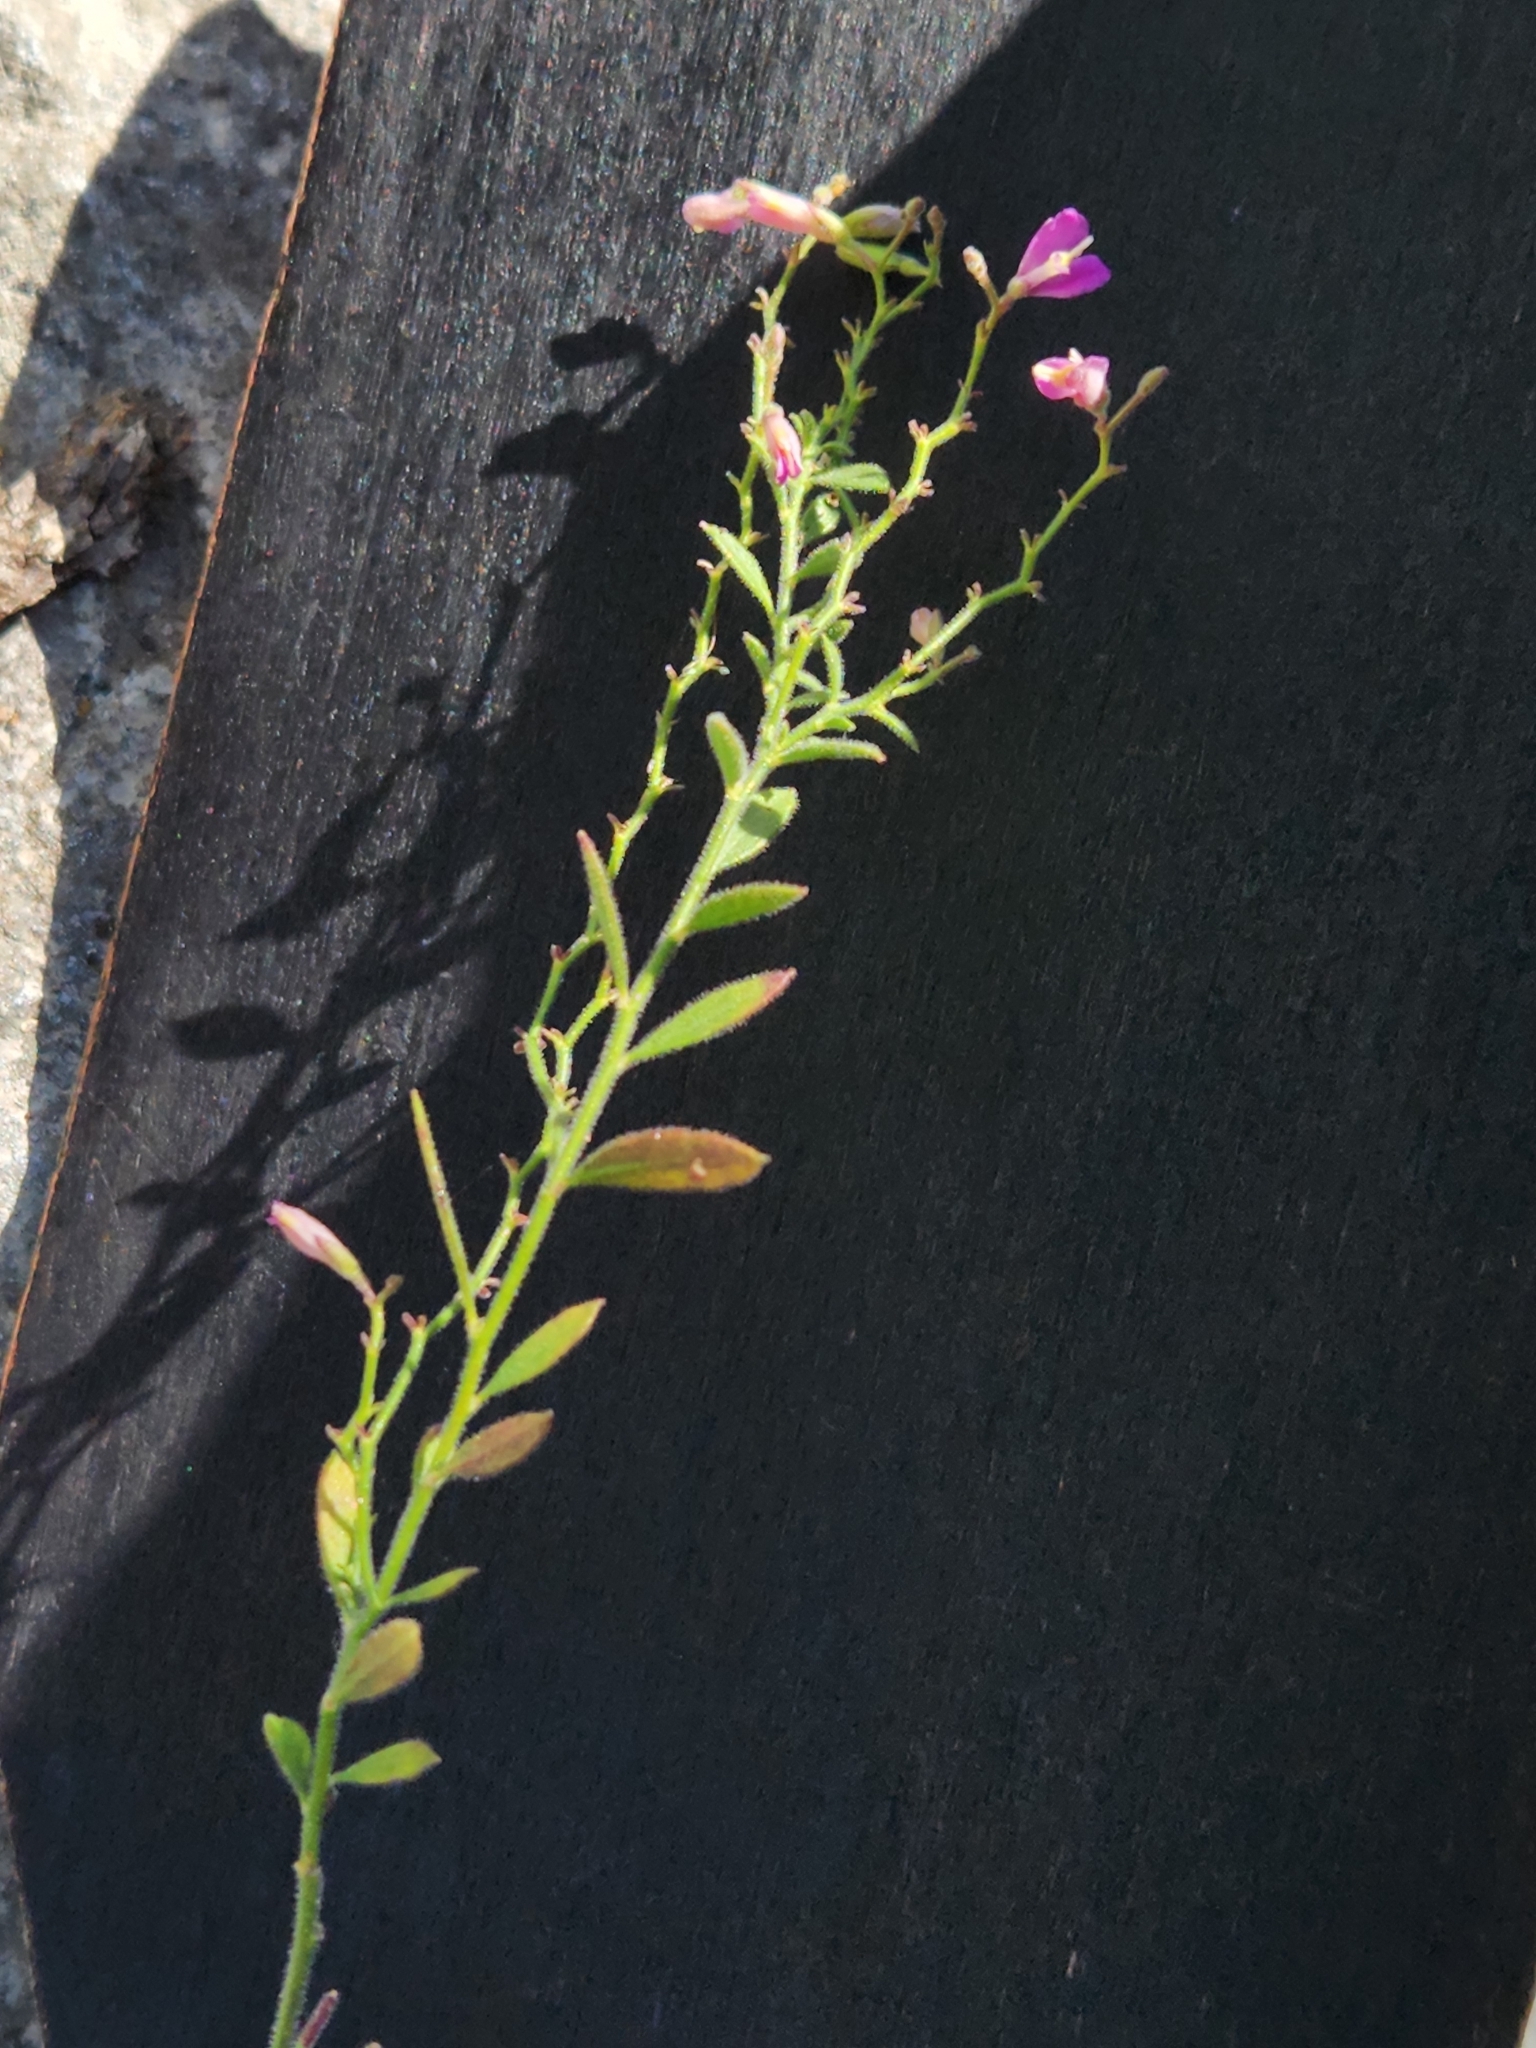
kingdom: Plantae
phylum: Tracheophyta
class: Magnoliopsida
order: Fabales
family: Polygalaceae
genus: Rhinotropis
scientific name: Rhinotropis lindheimeri
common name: Shrubby milkwort
